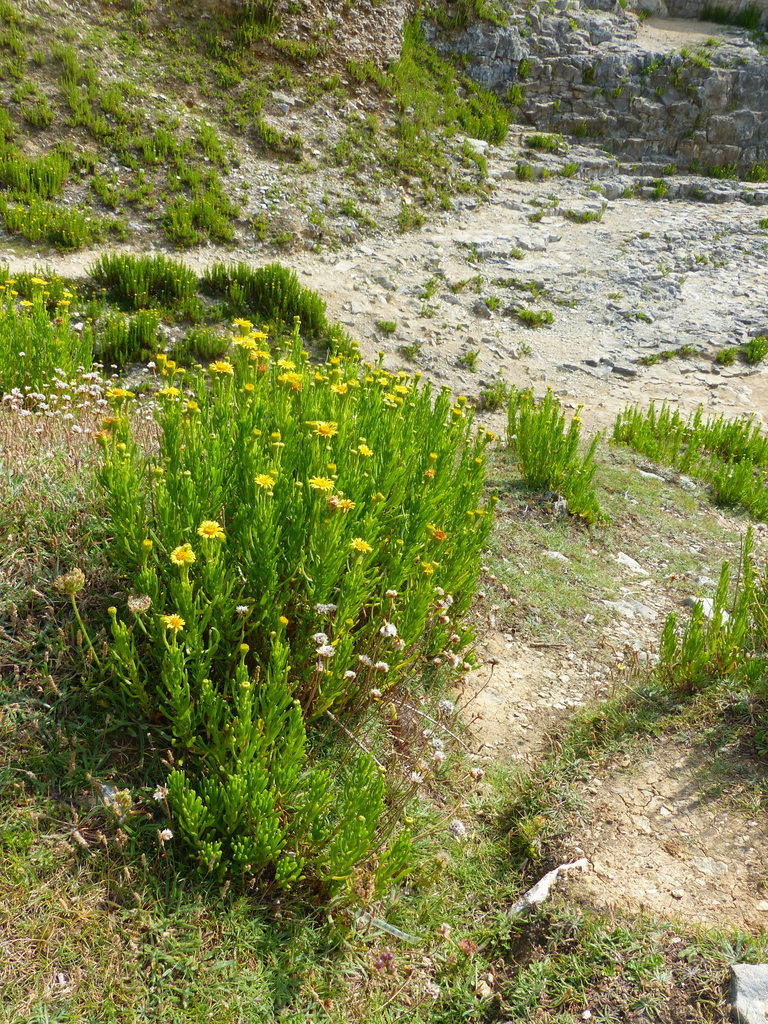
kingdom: Plantae
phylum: Tracheophyta
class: Magnoliopsida
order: Asterales
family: Asteraceae
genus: Limbarda
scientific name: Limbarda crithmoides
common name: Golden samphire
